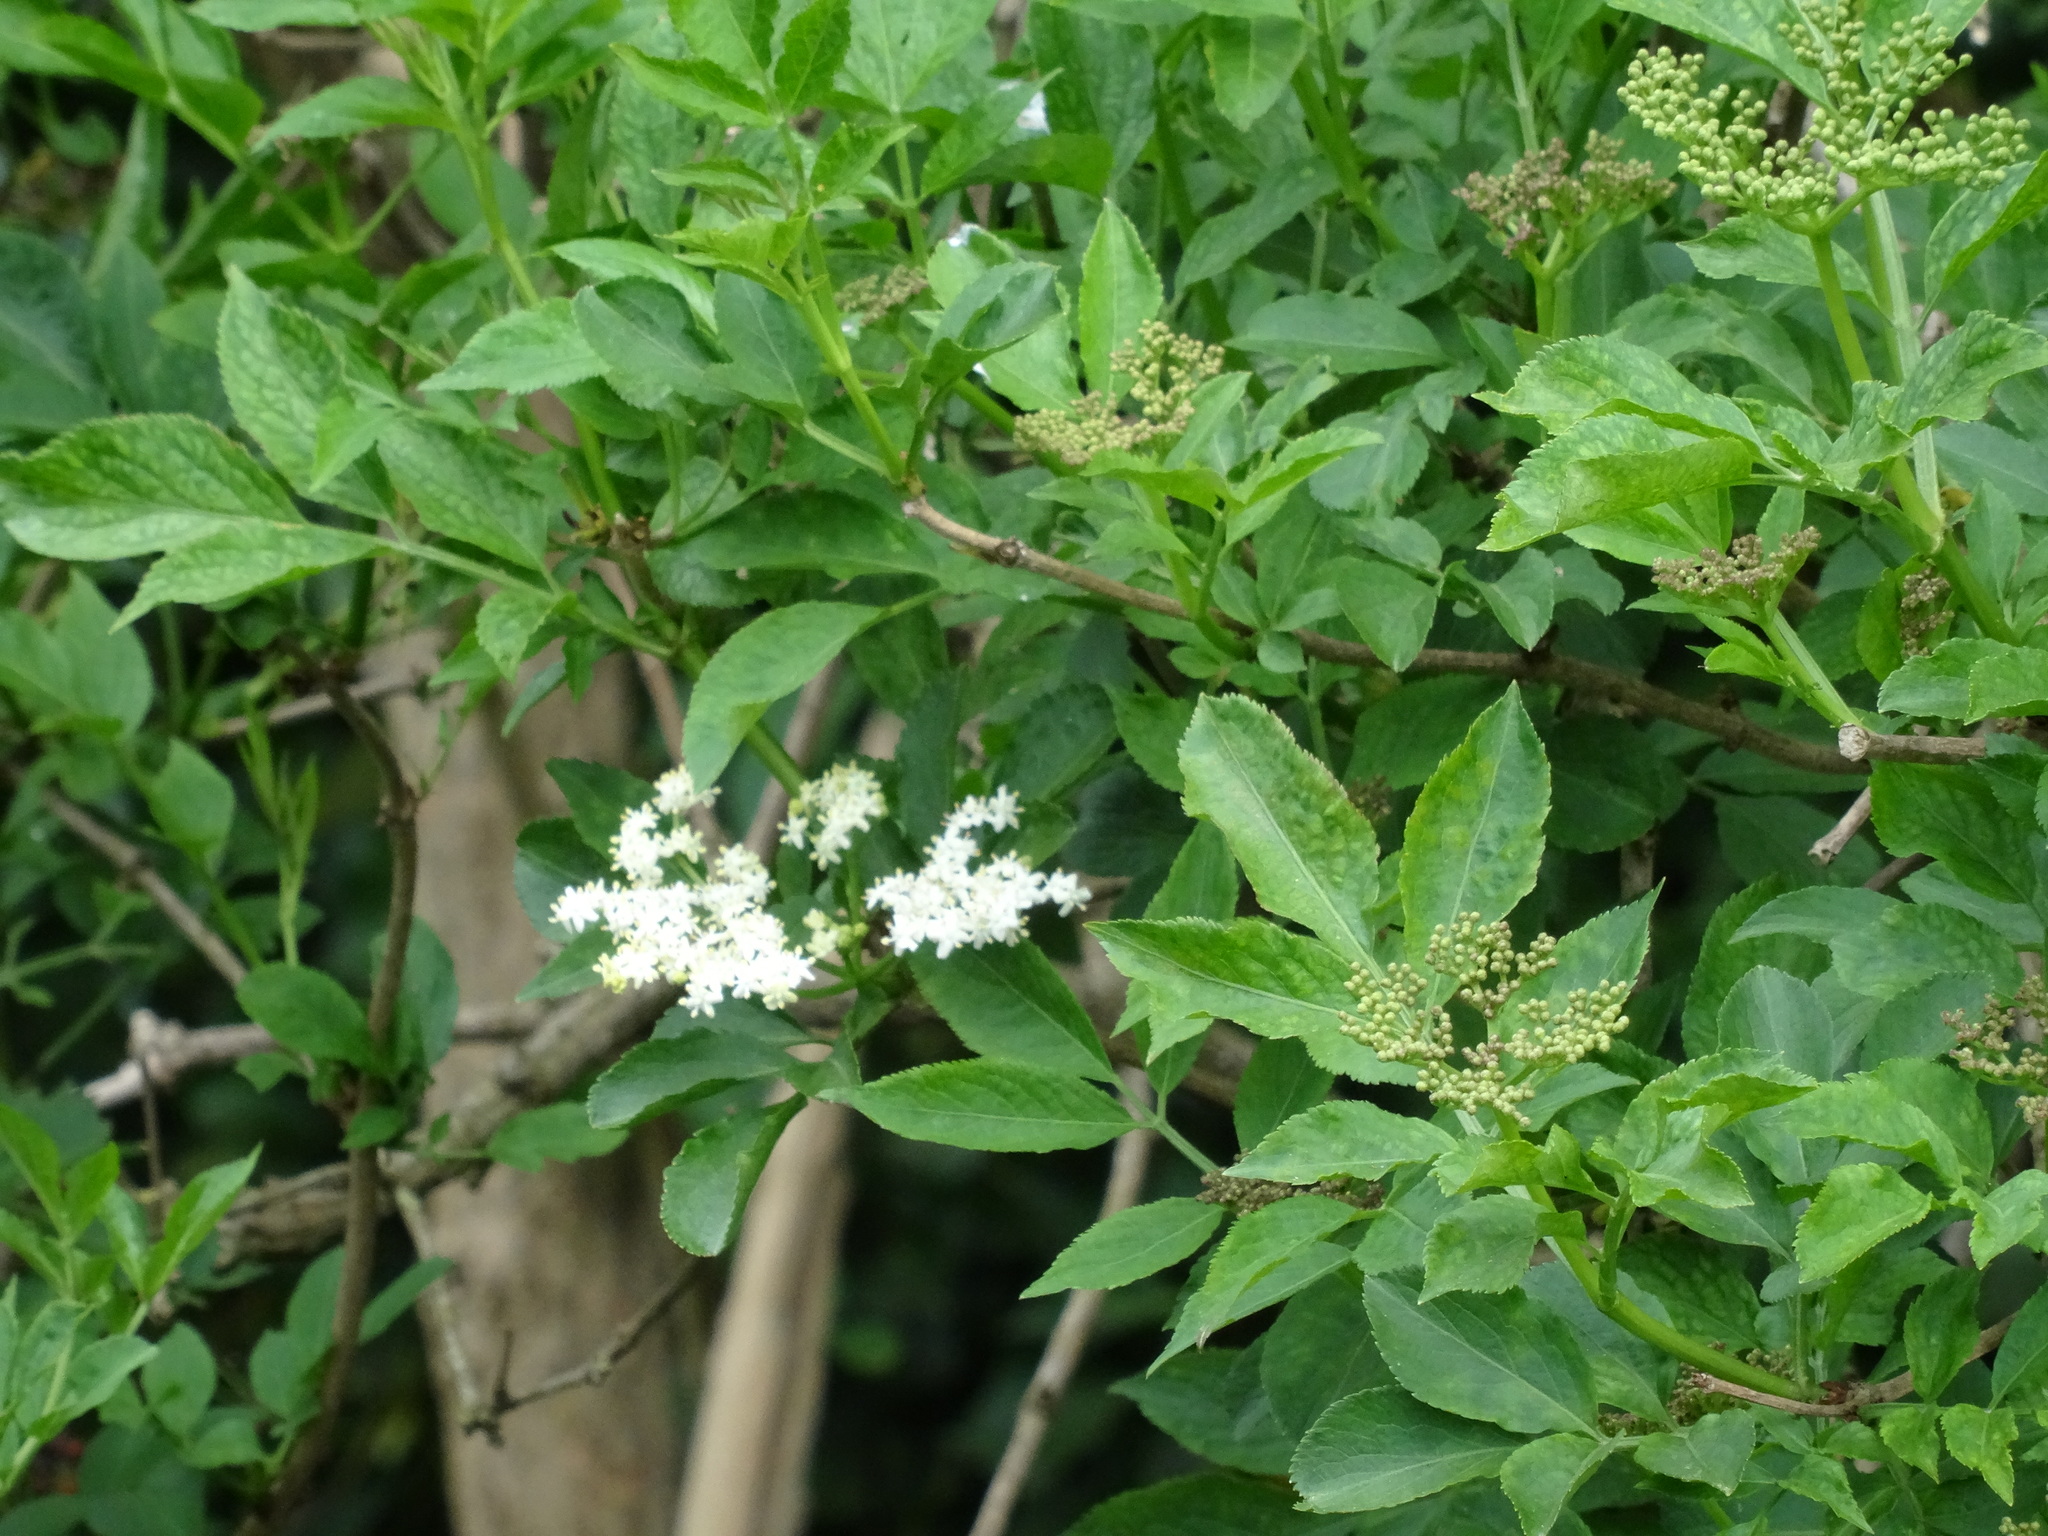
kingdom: Plantae
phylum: Tracheophyta
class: Magnoliopsida
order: Dipsacales
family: Viburnaceae
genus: Sambucus
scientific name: Sambucus nigra
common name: Elder
